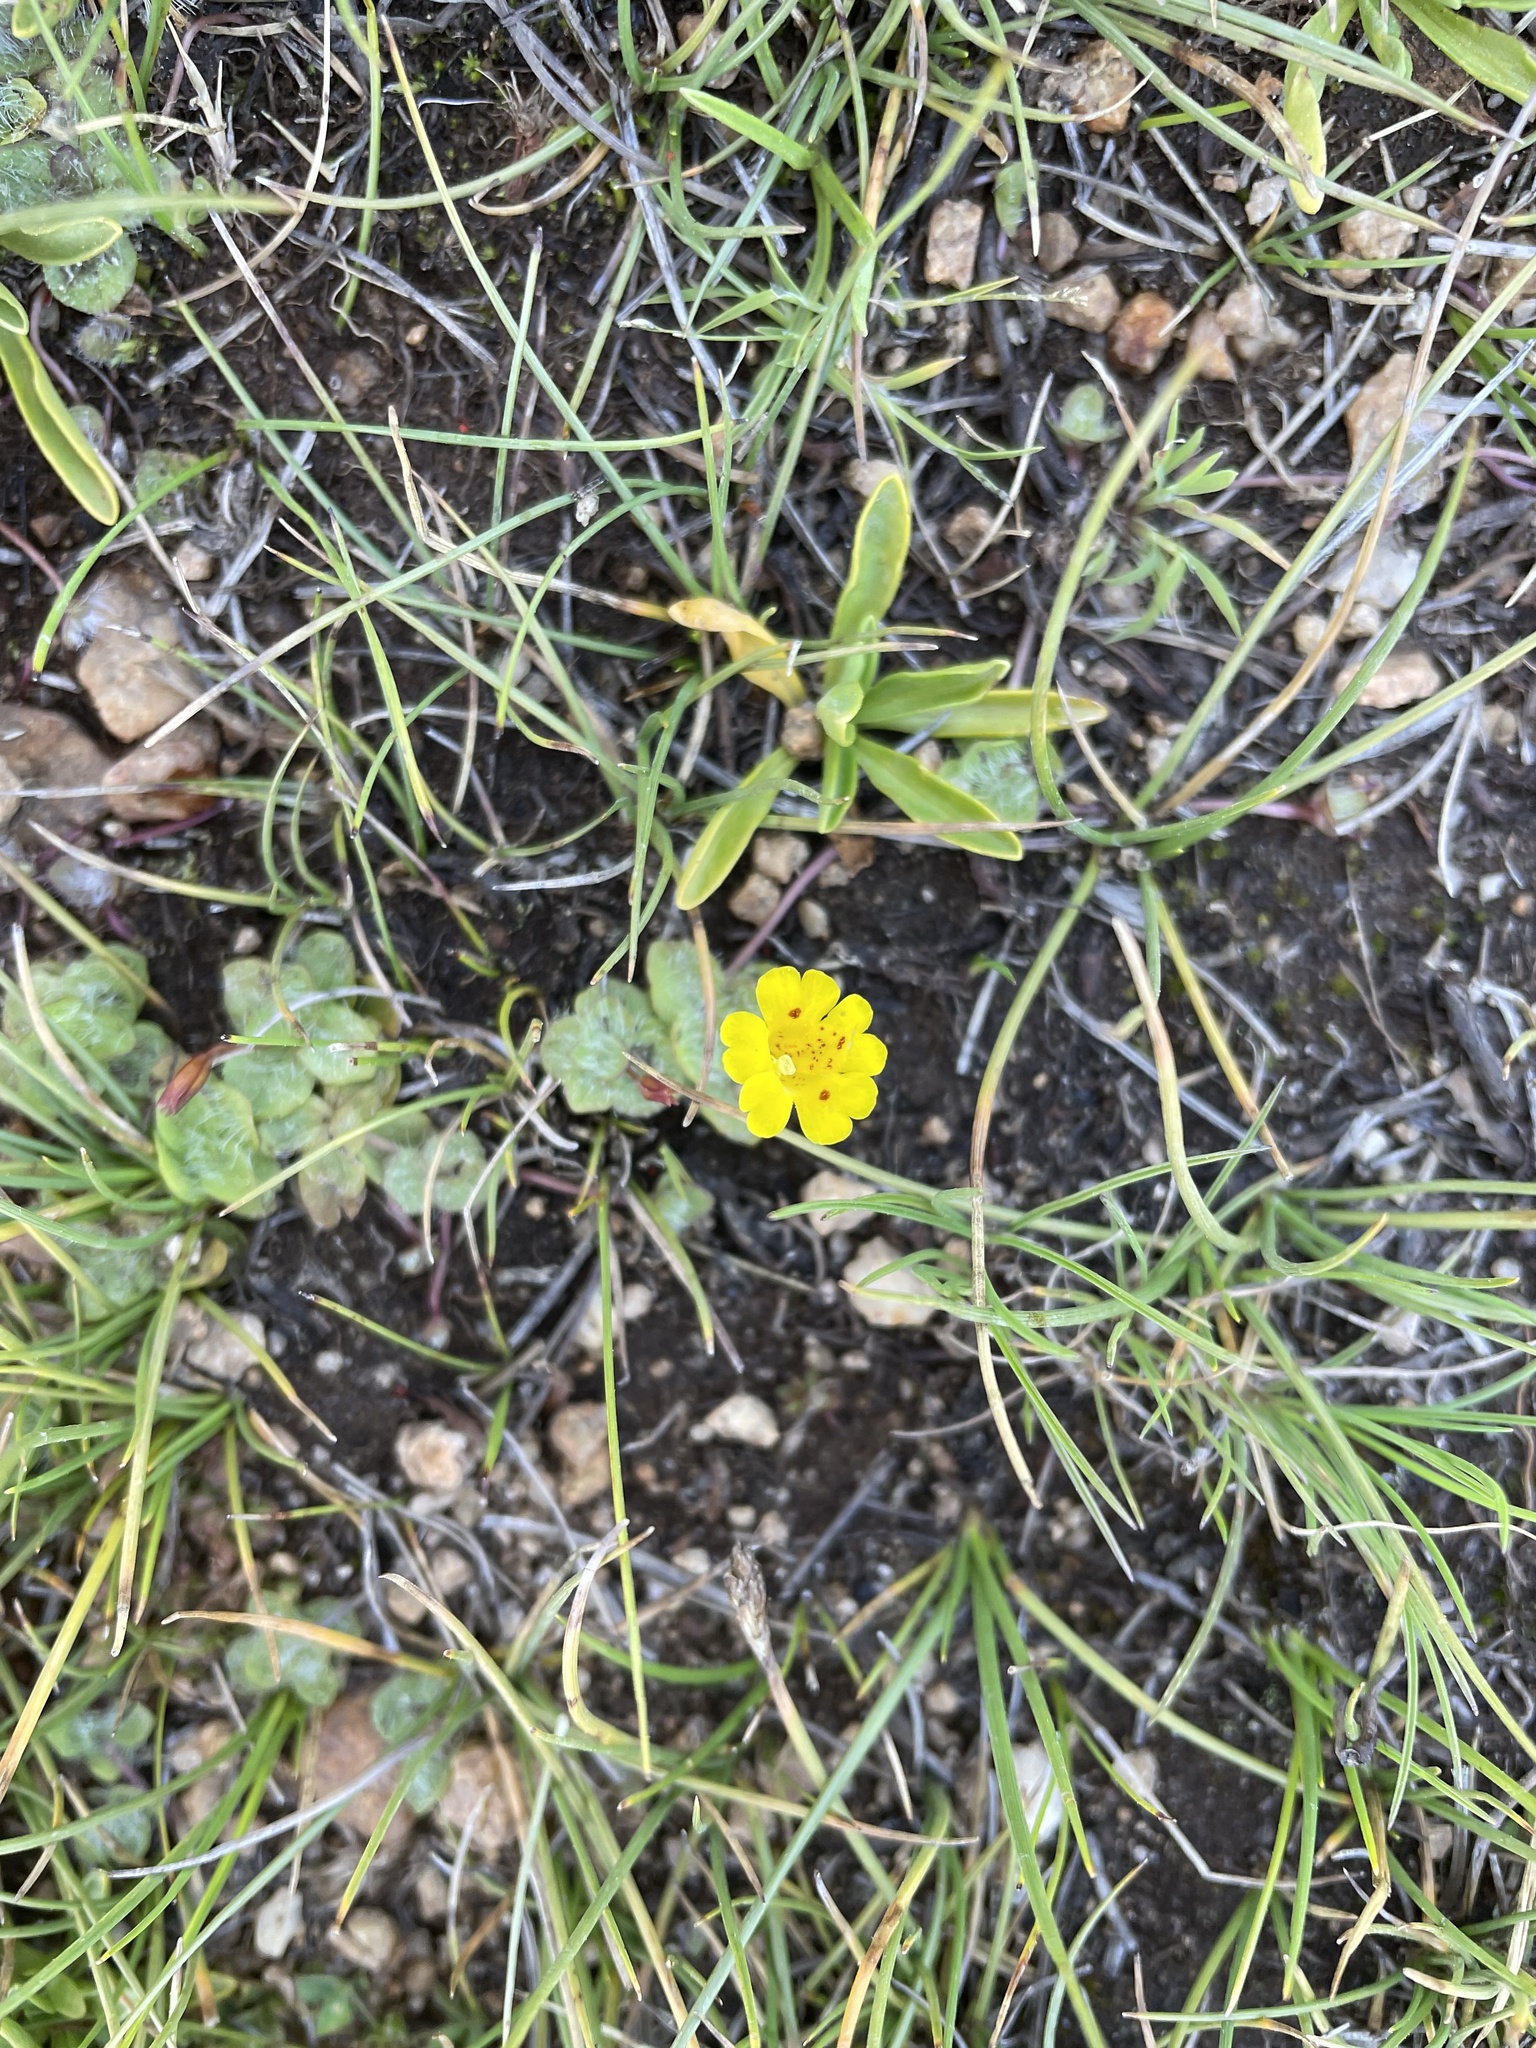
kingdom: Plantae
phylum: Tracheophyta
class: Magnoliopsida
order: Lamiales
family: Phrymaceae
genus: Erythranthe
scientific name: Erythranthe primuloides
